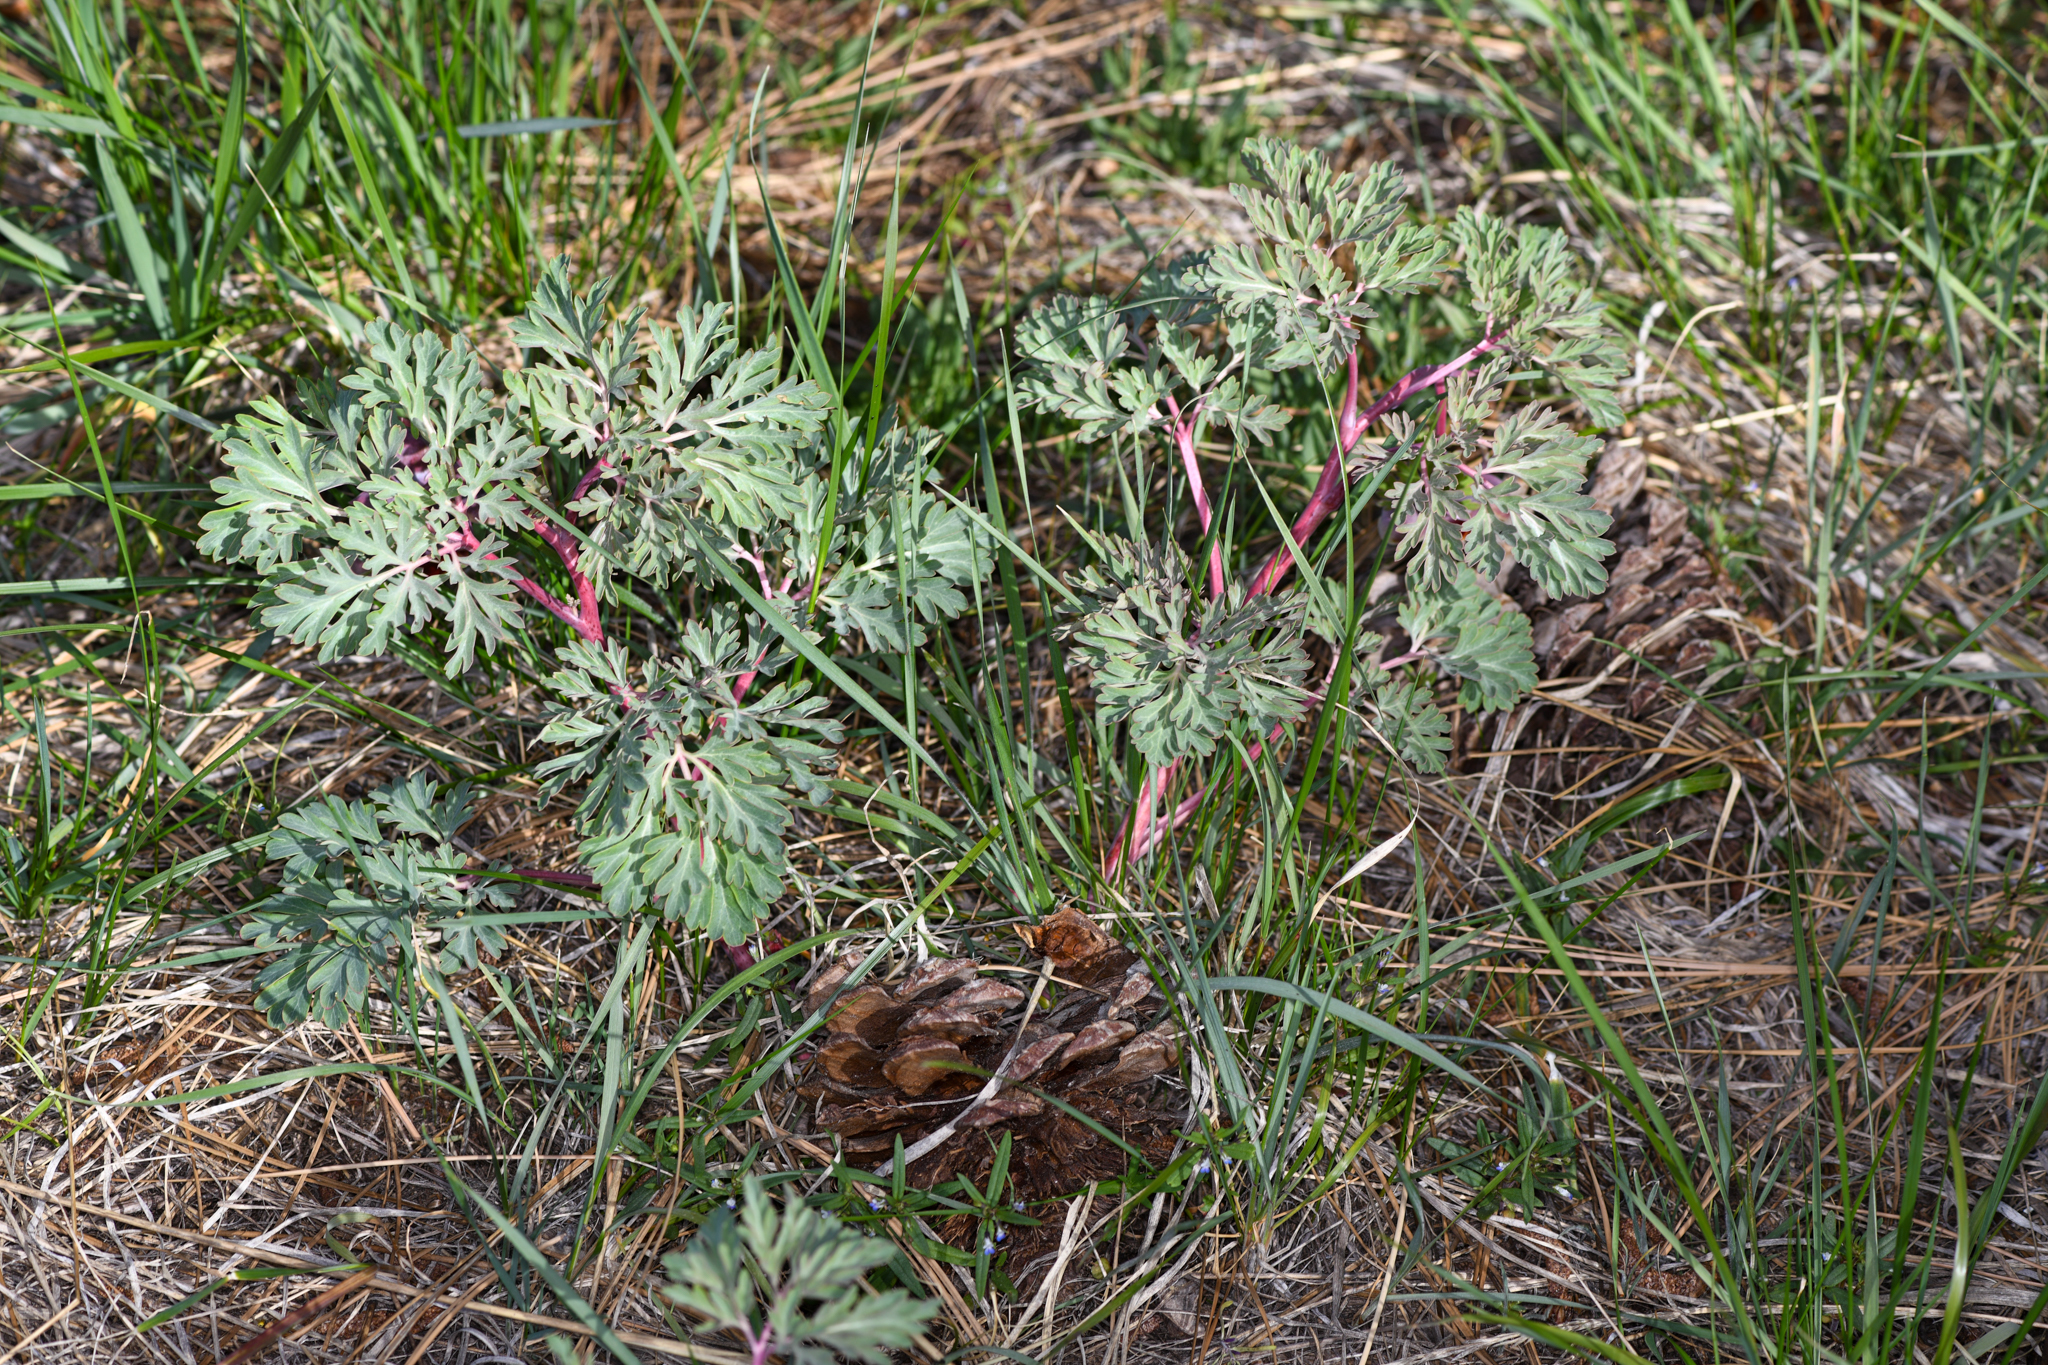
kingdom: Plantae
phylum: Tracheophyta
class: Magnoliopsida
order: Saxifragales
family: Paeoniaceae
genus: Paeonia
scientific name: Paeonia brownii
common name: Brown's peony
